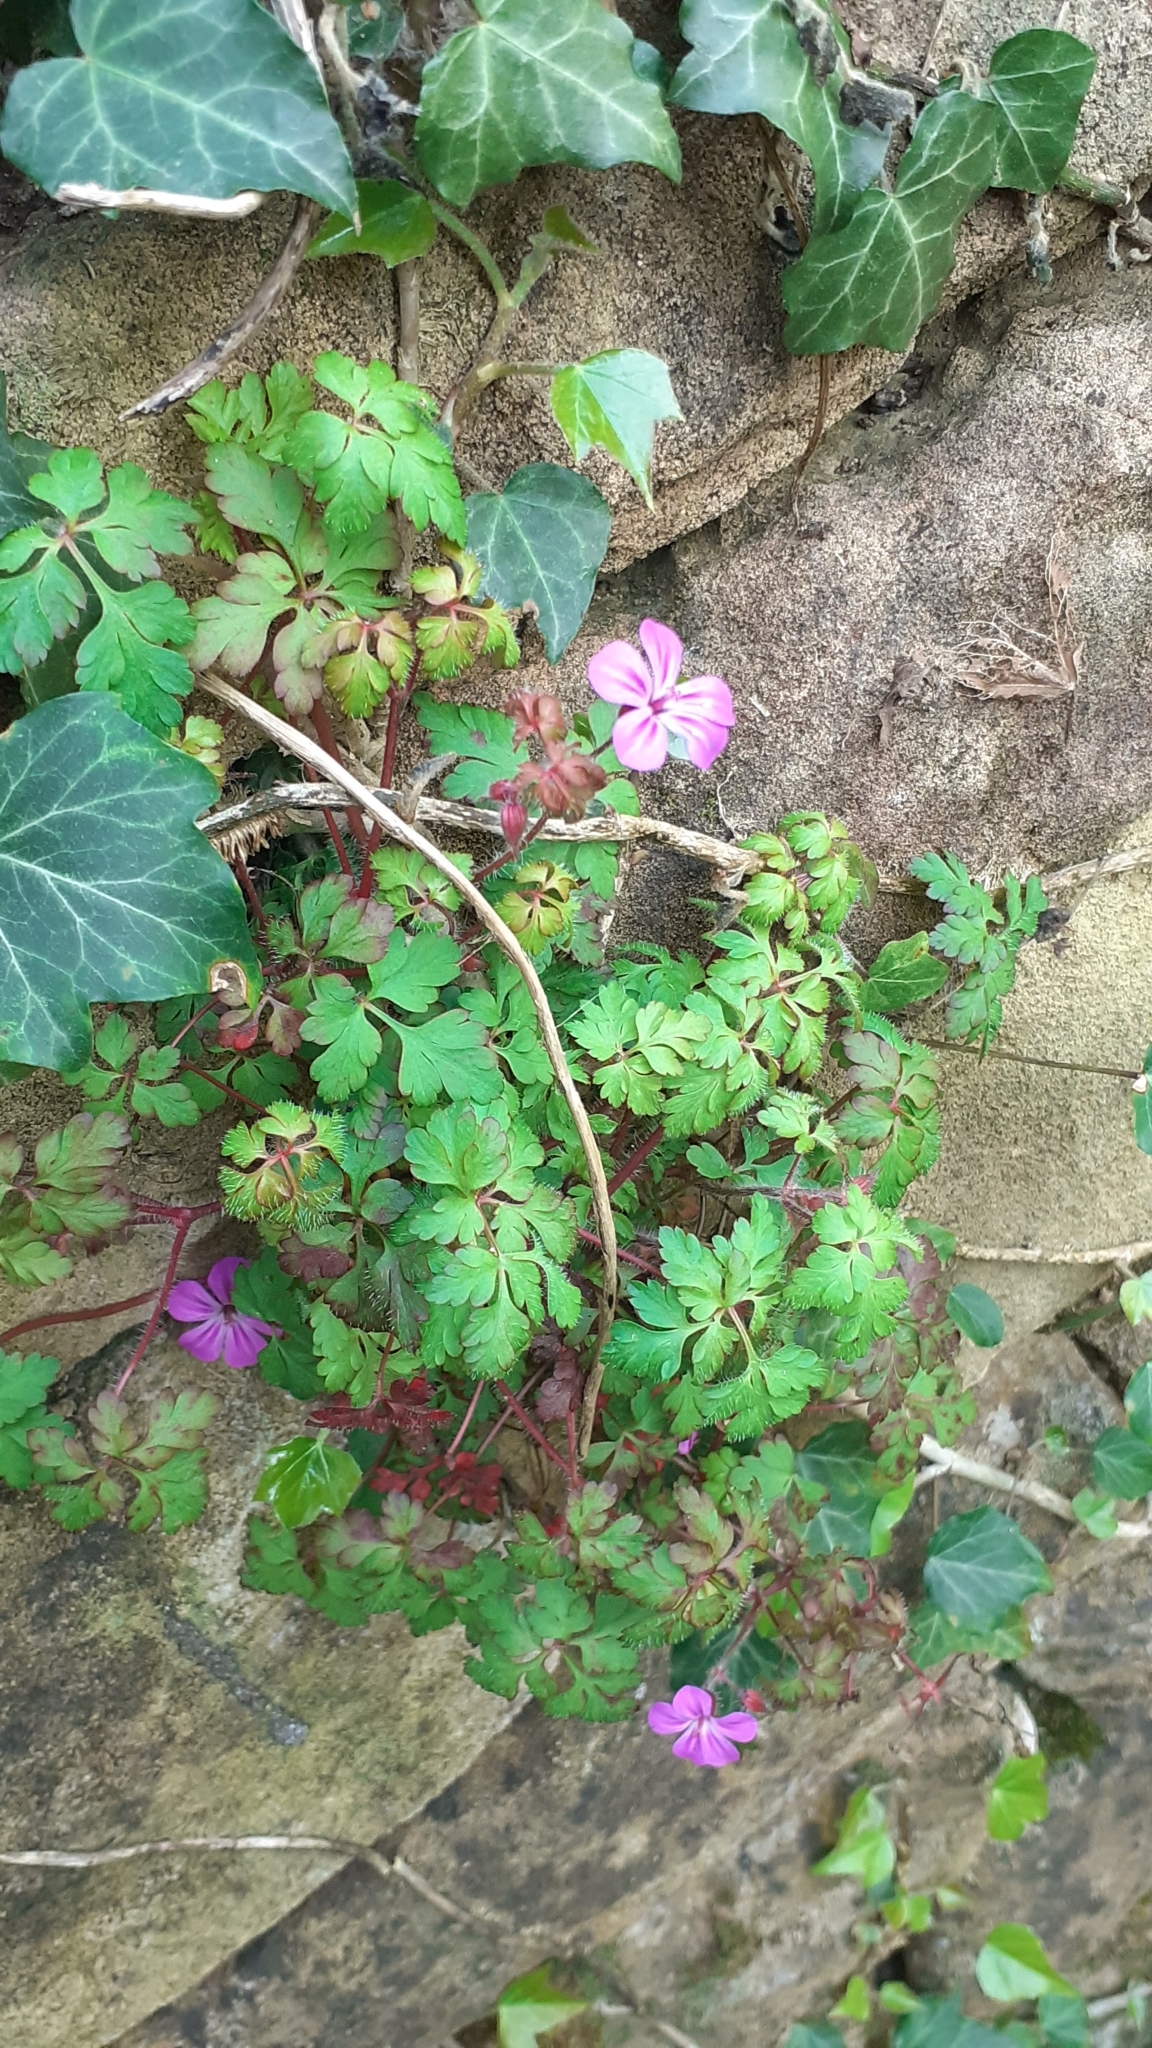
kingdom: Plantae
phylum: Tracheophyta
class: Magnoliopsida
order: Geraniales
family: Geraniaceae
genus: Geranium
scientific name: Geranium robertianum
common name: Herb-robert
